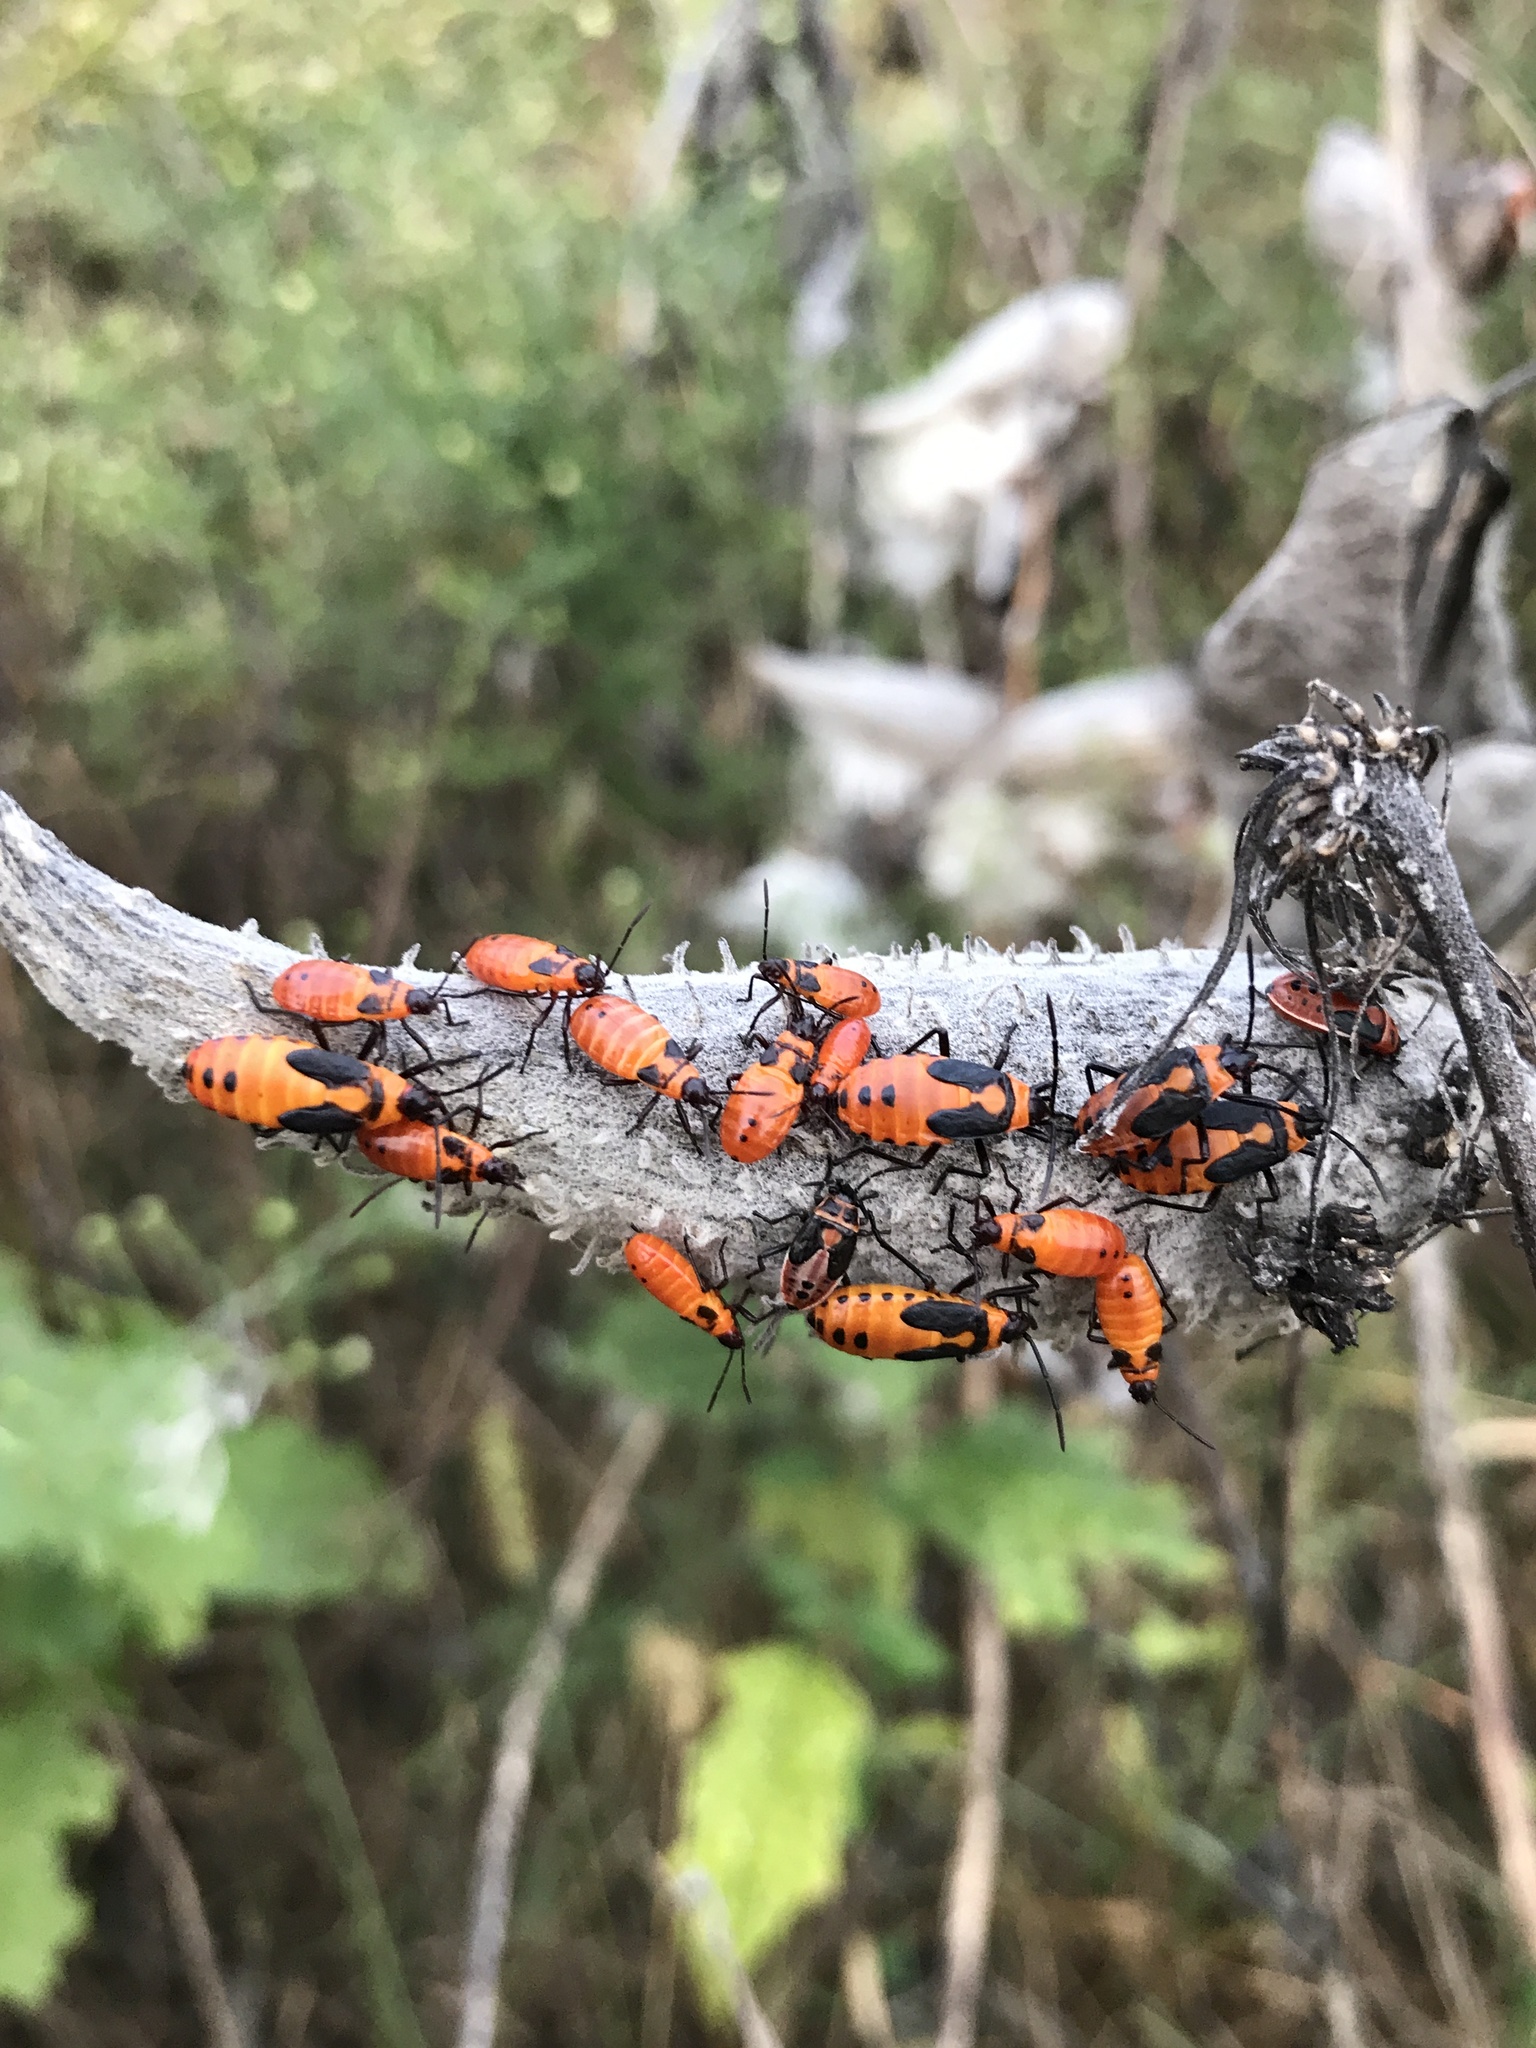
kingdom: Animalia
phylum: Arthropoda
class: Insecta
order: Hemiptera
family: Lygaeidae
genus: Oncopeltus
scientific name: Oncopeltus fasciatus
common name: Large milkweed bug
